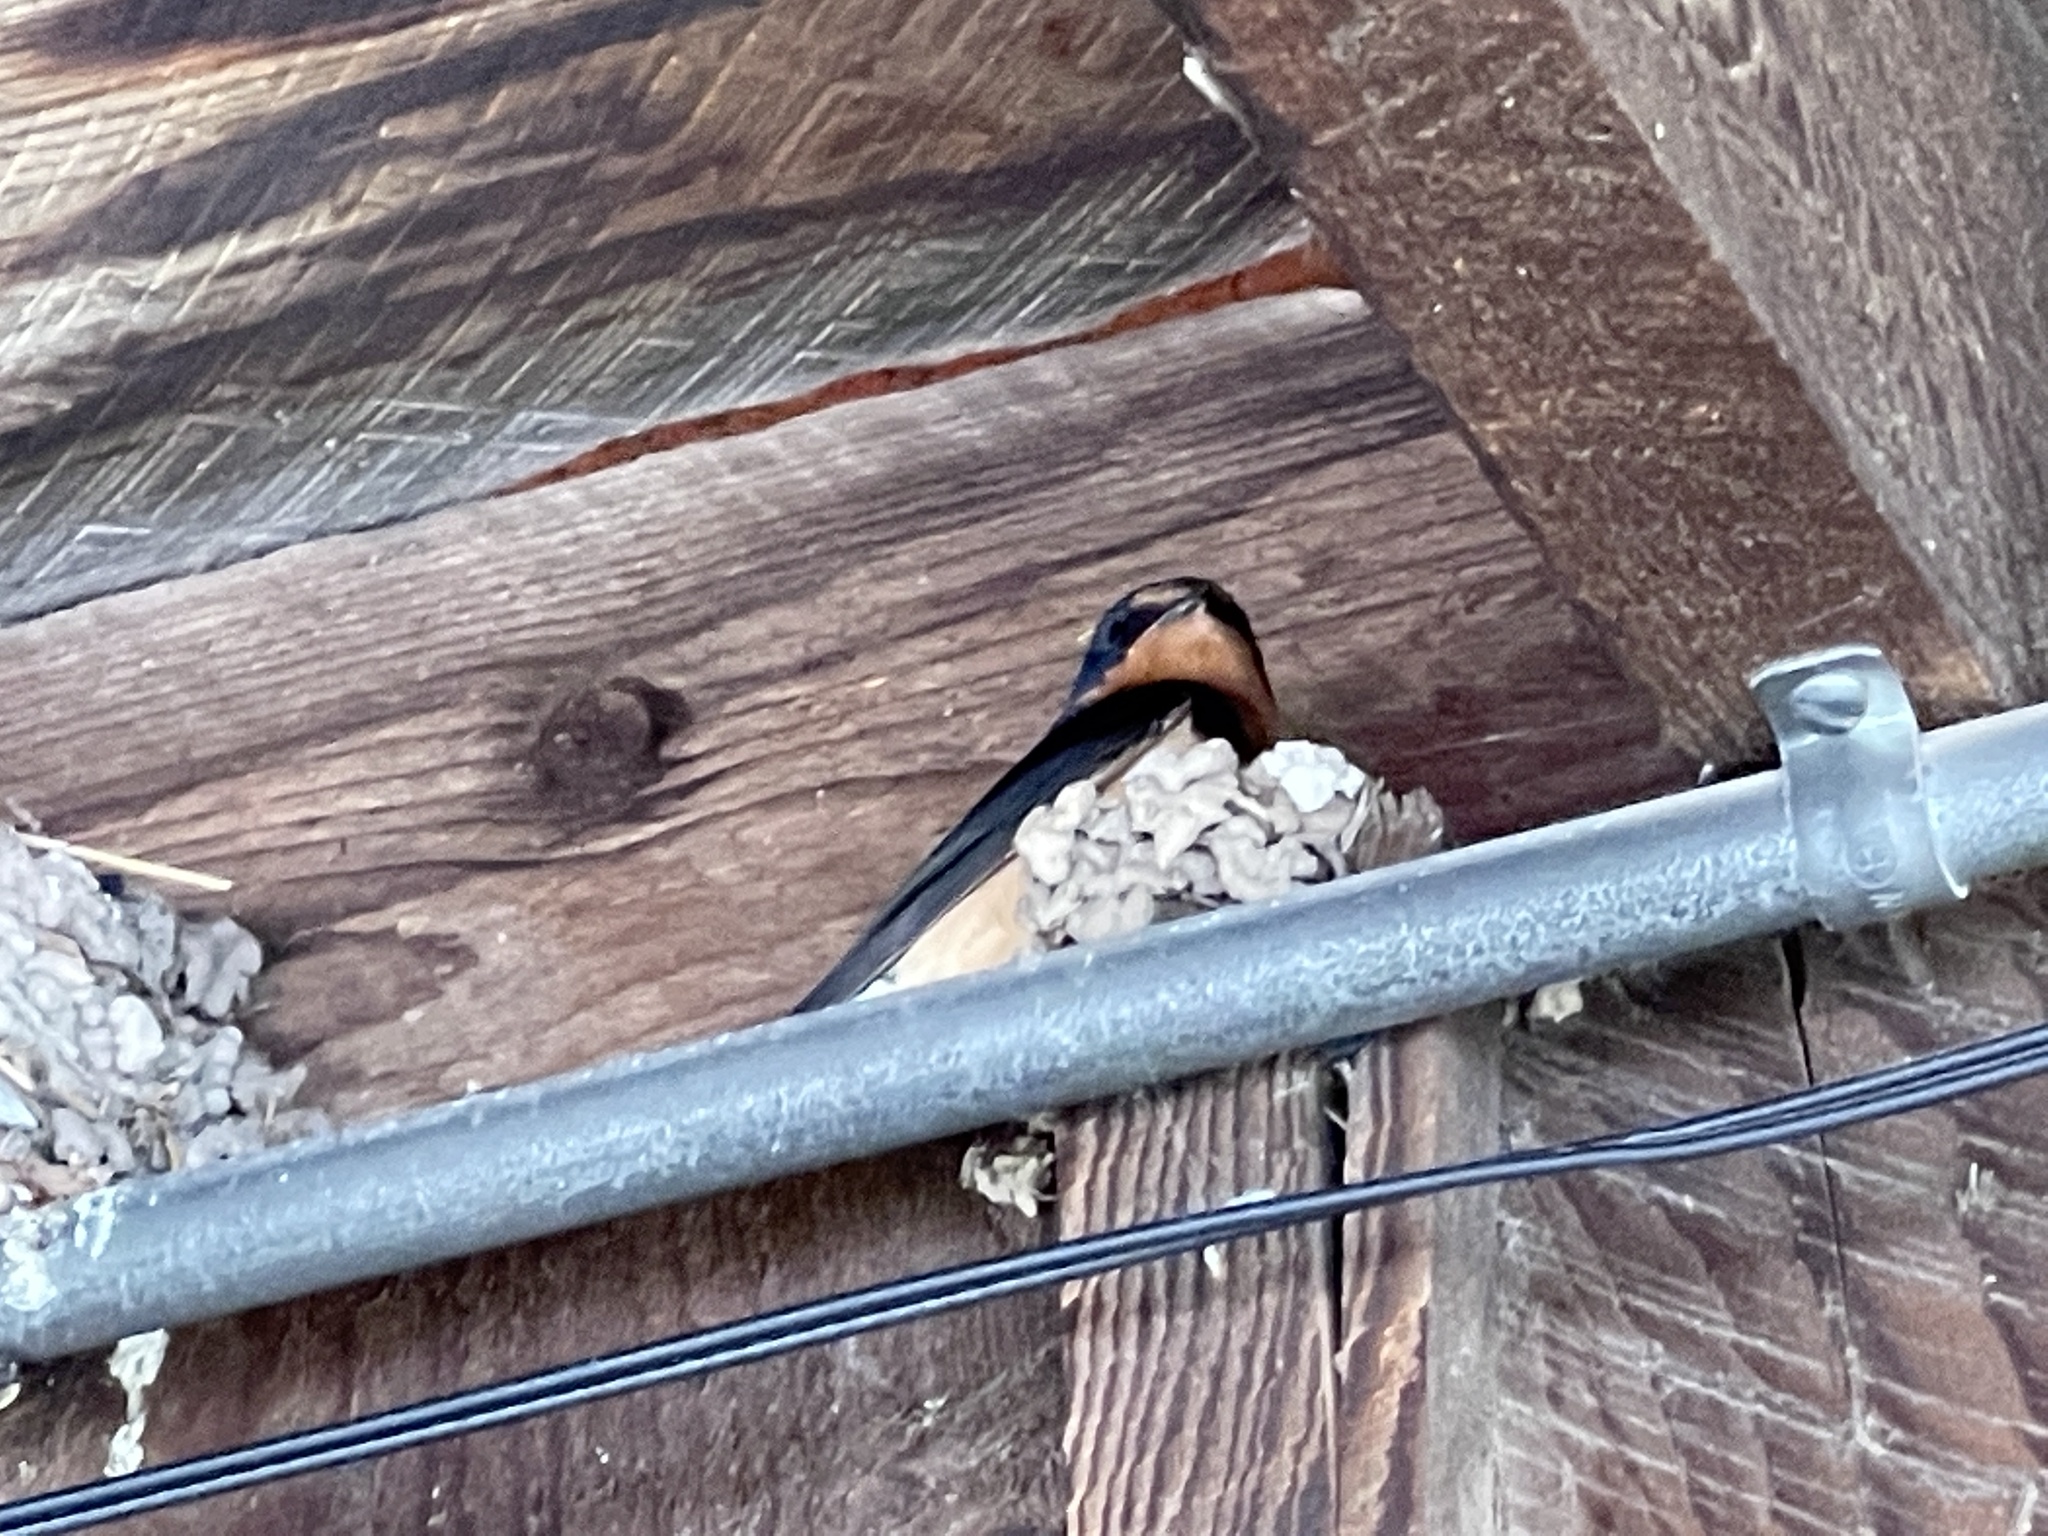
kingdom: Animalia
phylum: Chordata
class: Aves
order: Passeriformes
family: Hirundinidae
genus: Hirundo
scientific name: Hirundo rustica
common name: Barn swallow
